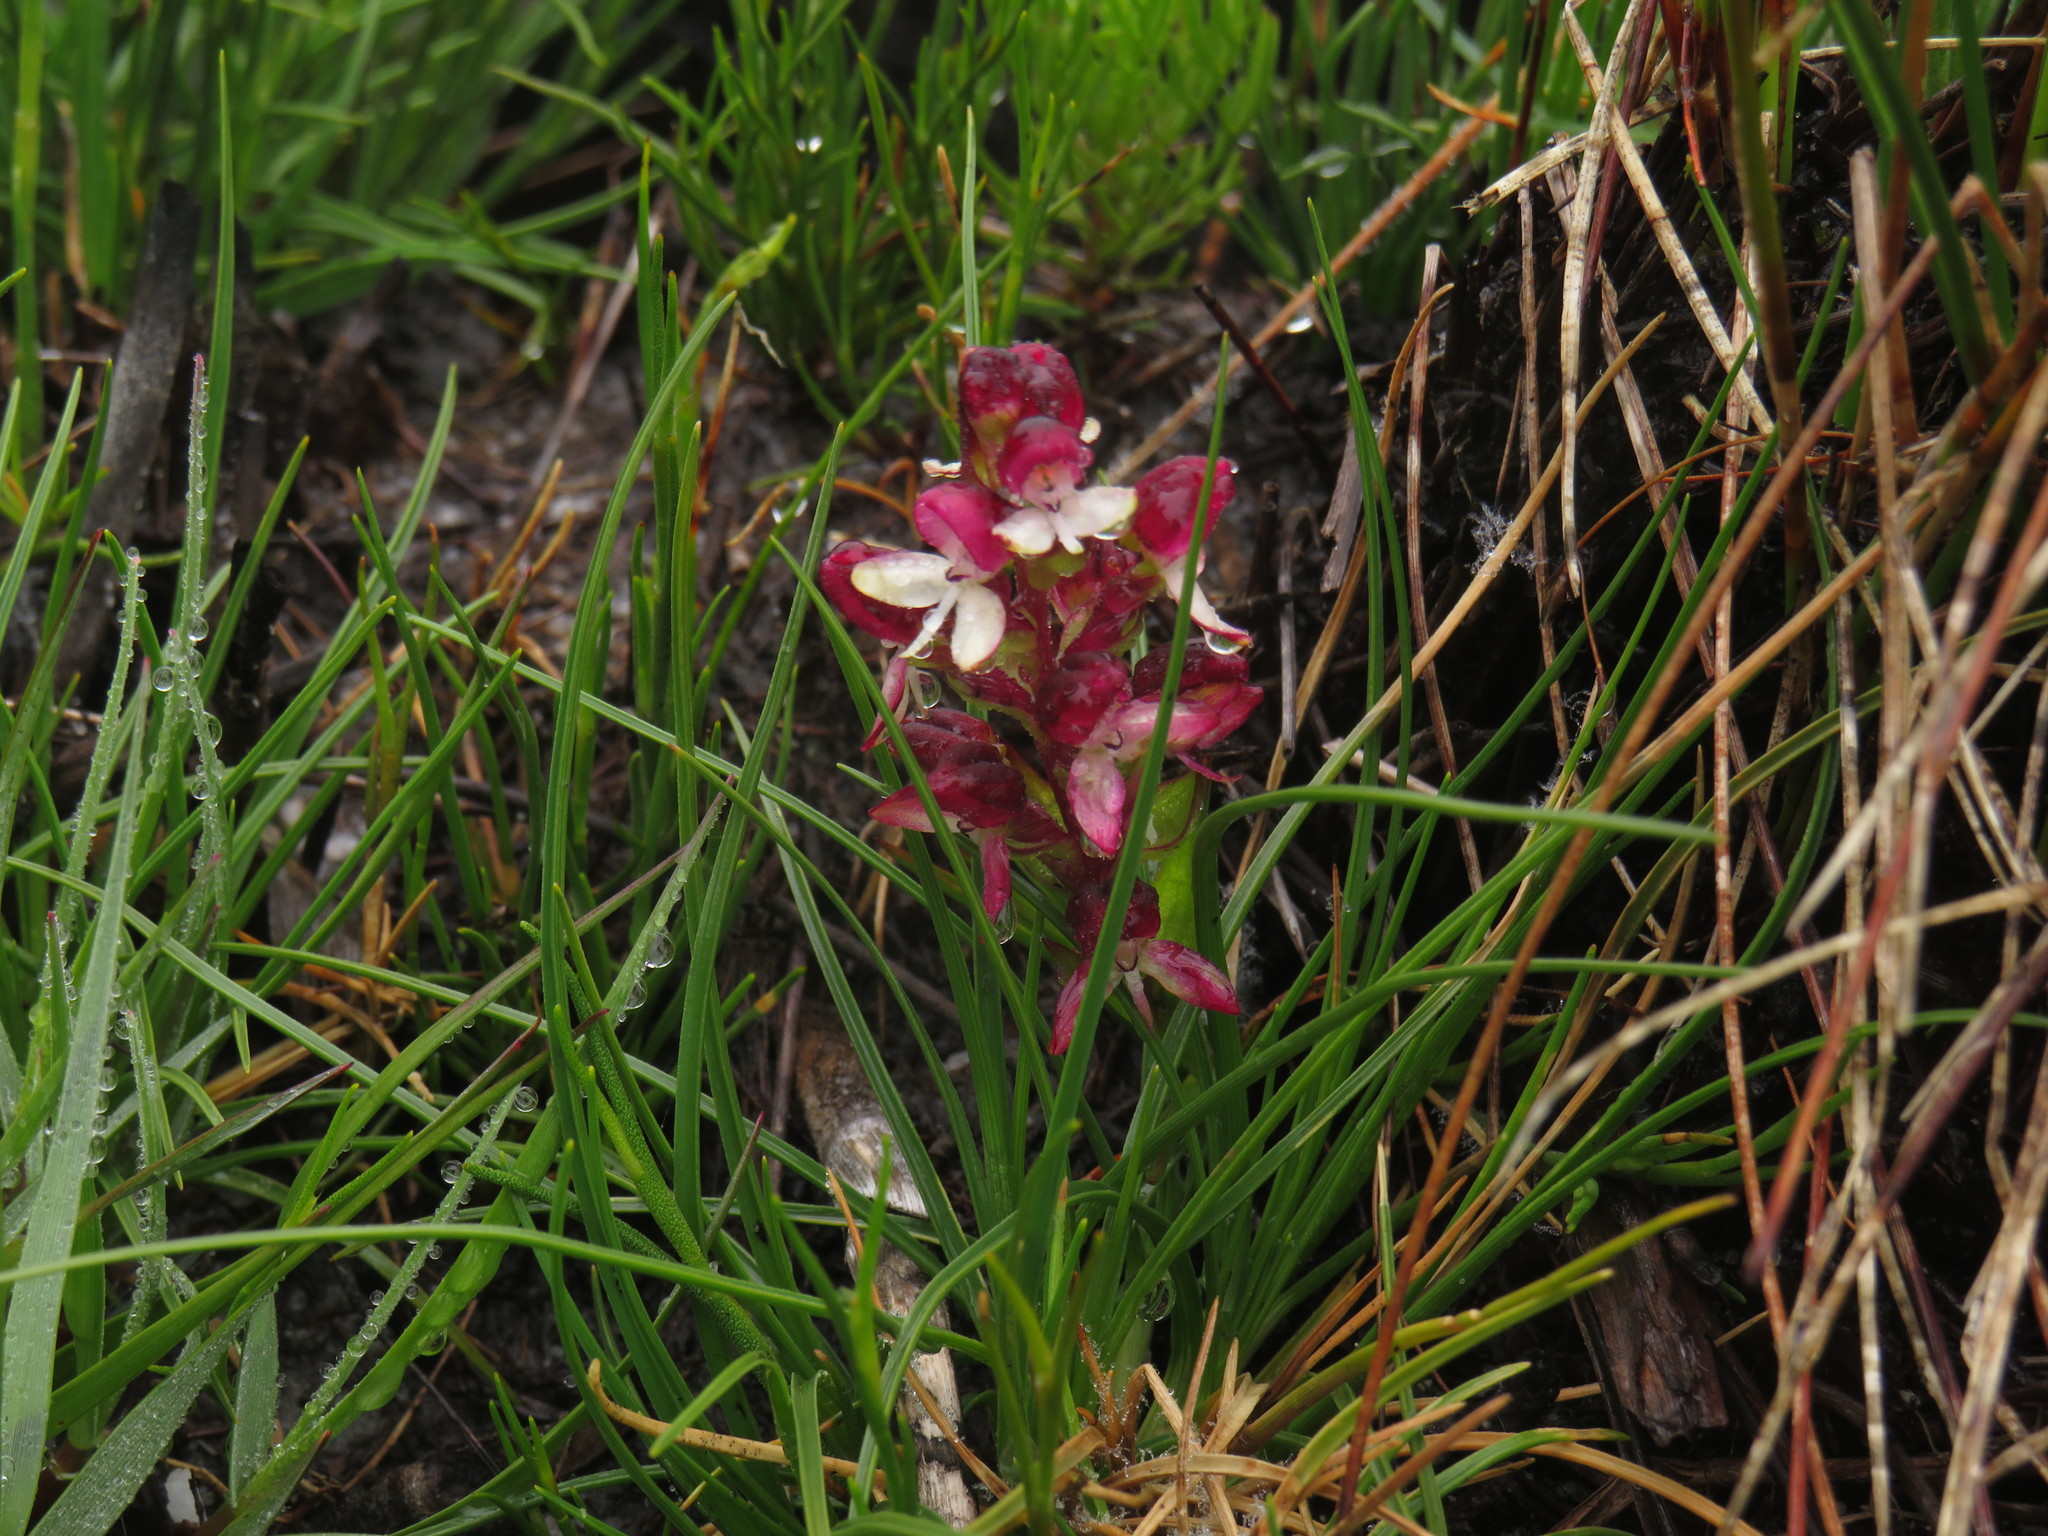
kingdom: Plantae
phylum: Tracheophyta
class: Liliopsida
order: Asparagales
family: Orchidaceae
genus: Disa
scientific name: Disa albomagentea
